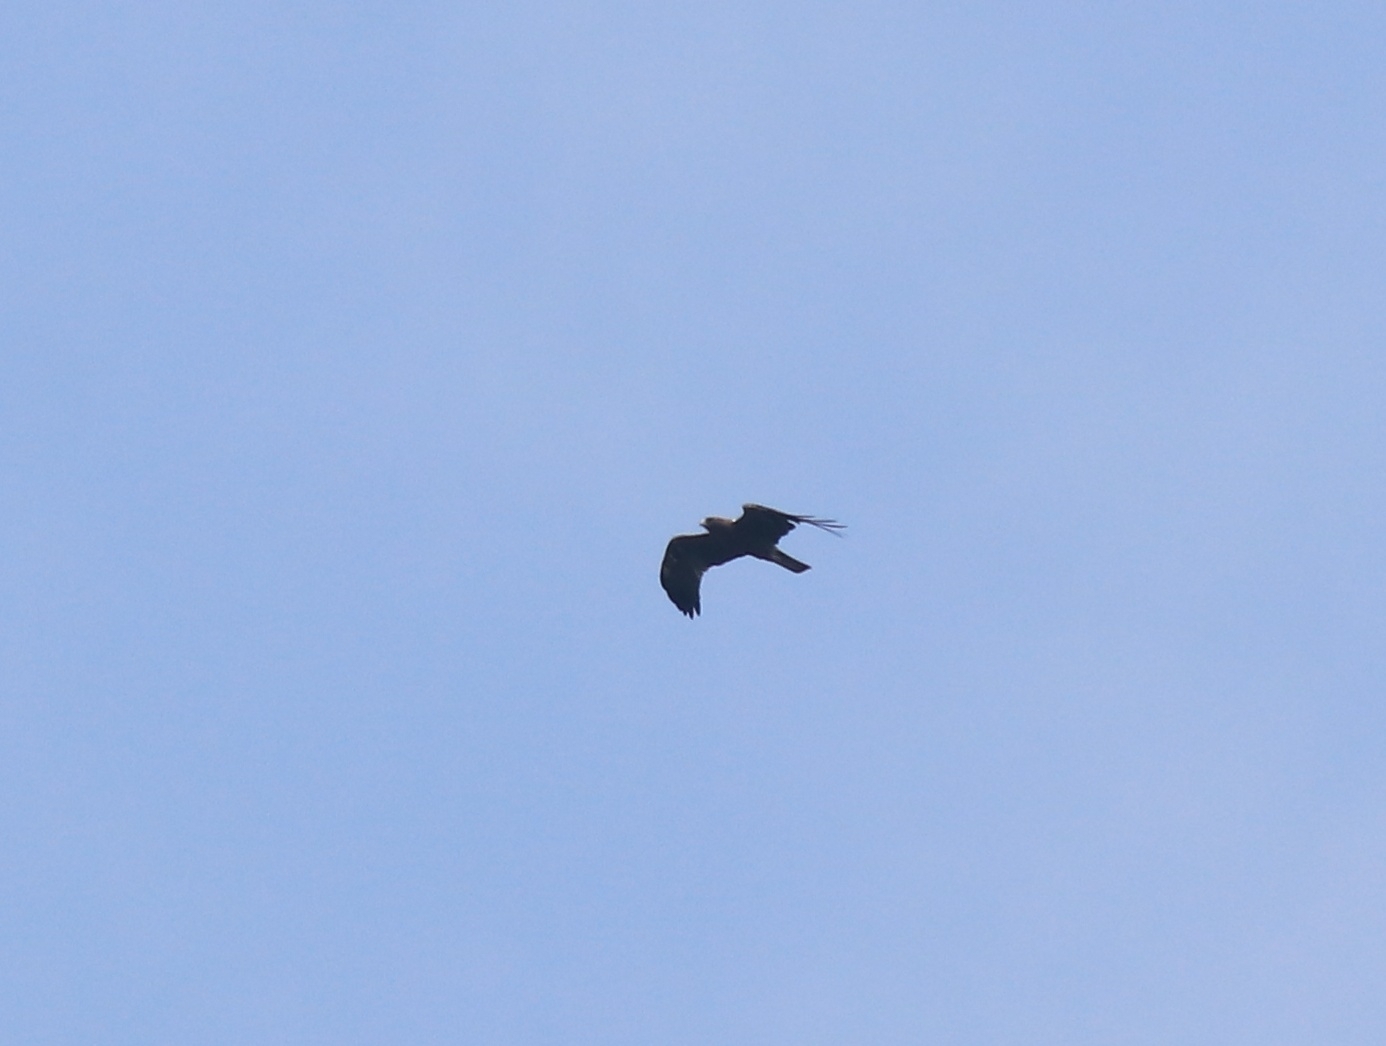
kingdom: Animalia
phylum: Chordata
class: Aves
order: Accipitriformes
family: Accipitridae
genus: Hieraaetus
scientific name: Hieraaetus pennatus
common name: Booted eagle
